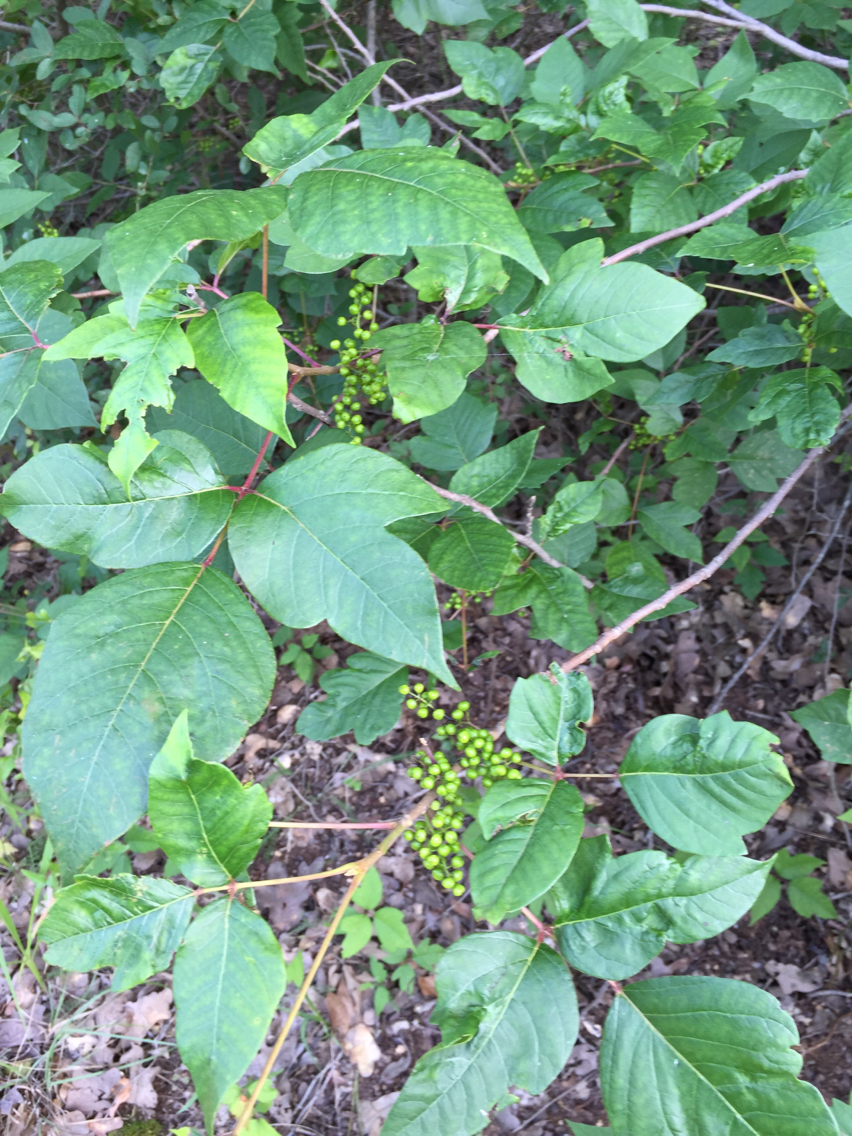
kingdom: Plantae
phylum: Tracheophyta
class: Magnoliopsida
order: Sapindales
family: Anacardiaceae
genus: Toxicodendron
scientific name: Toxicodendron radicans
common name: Poison ivy
